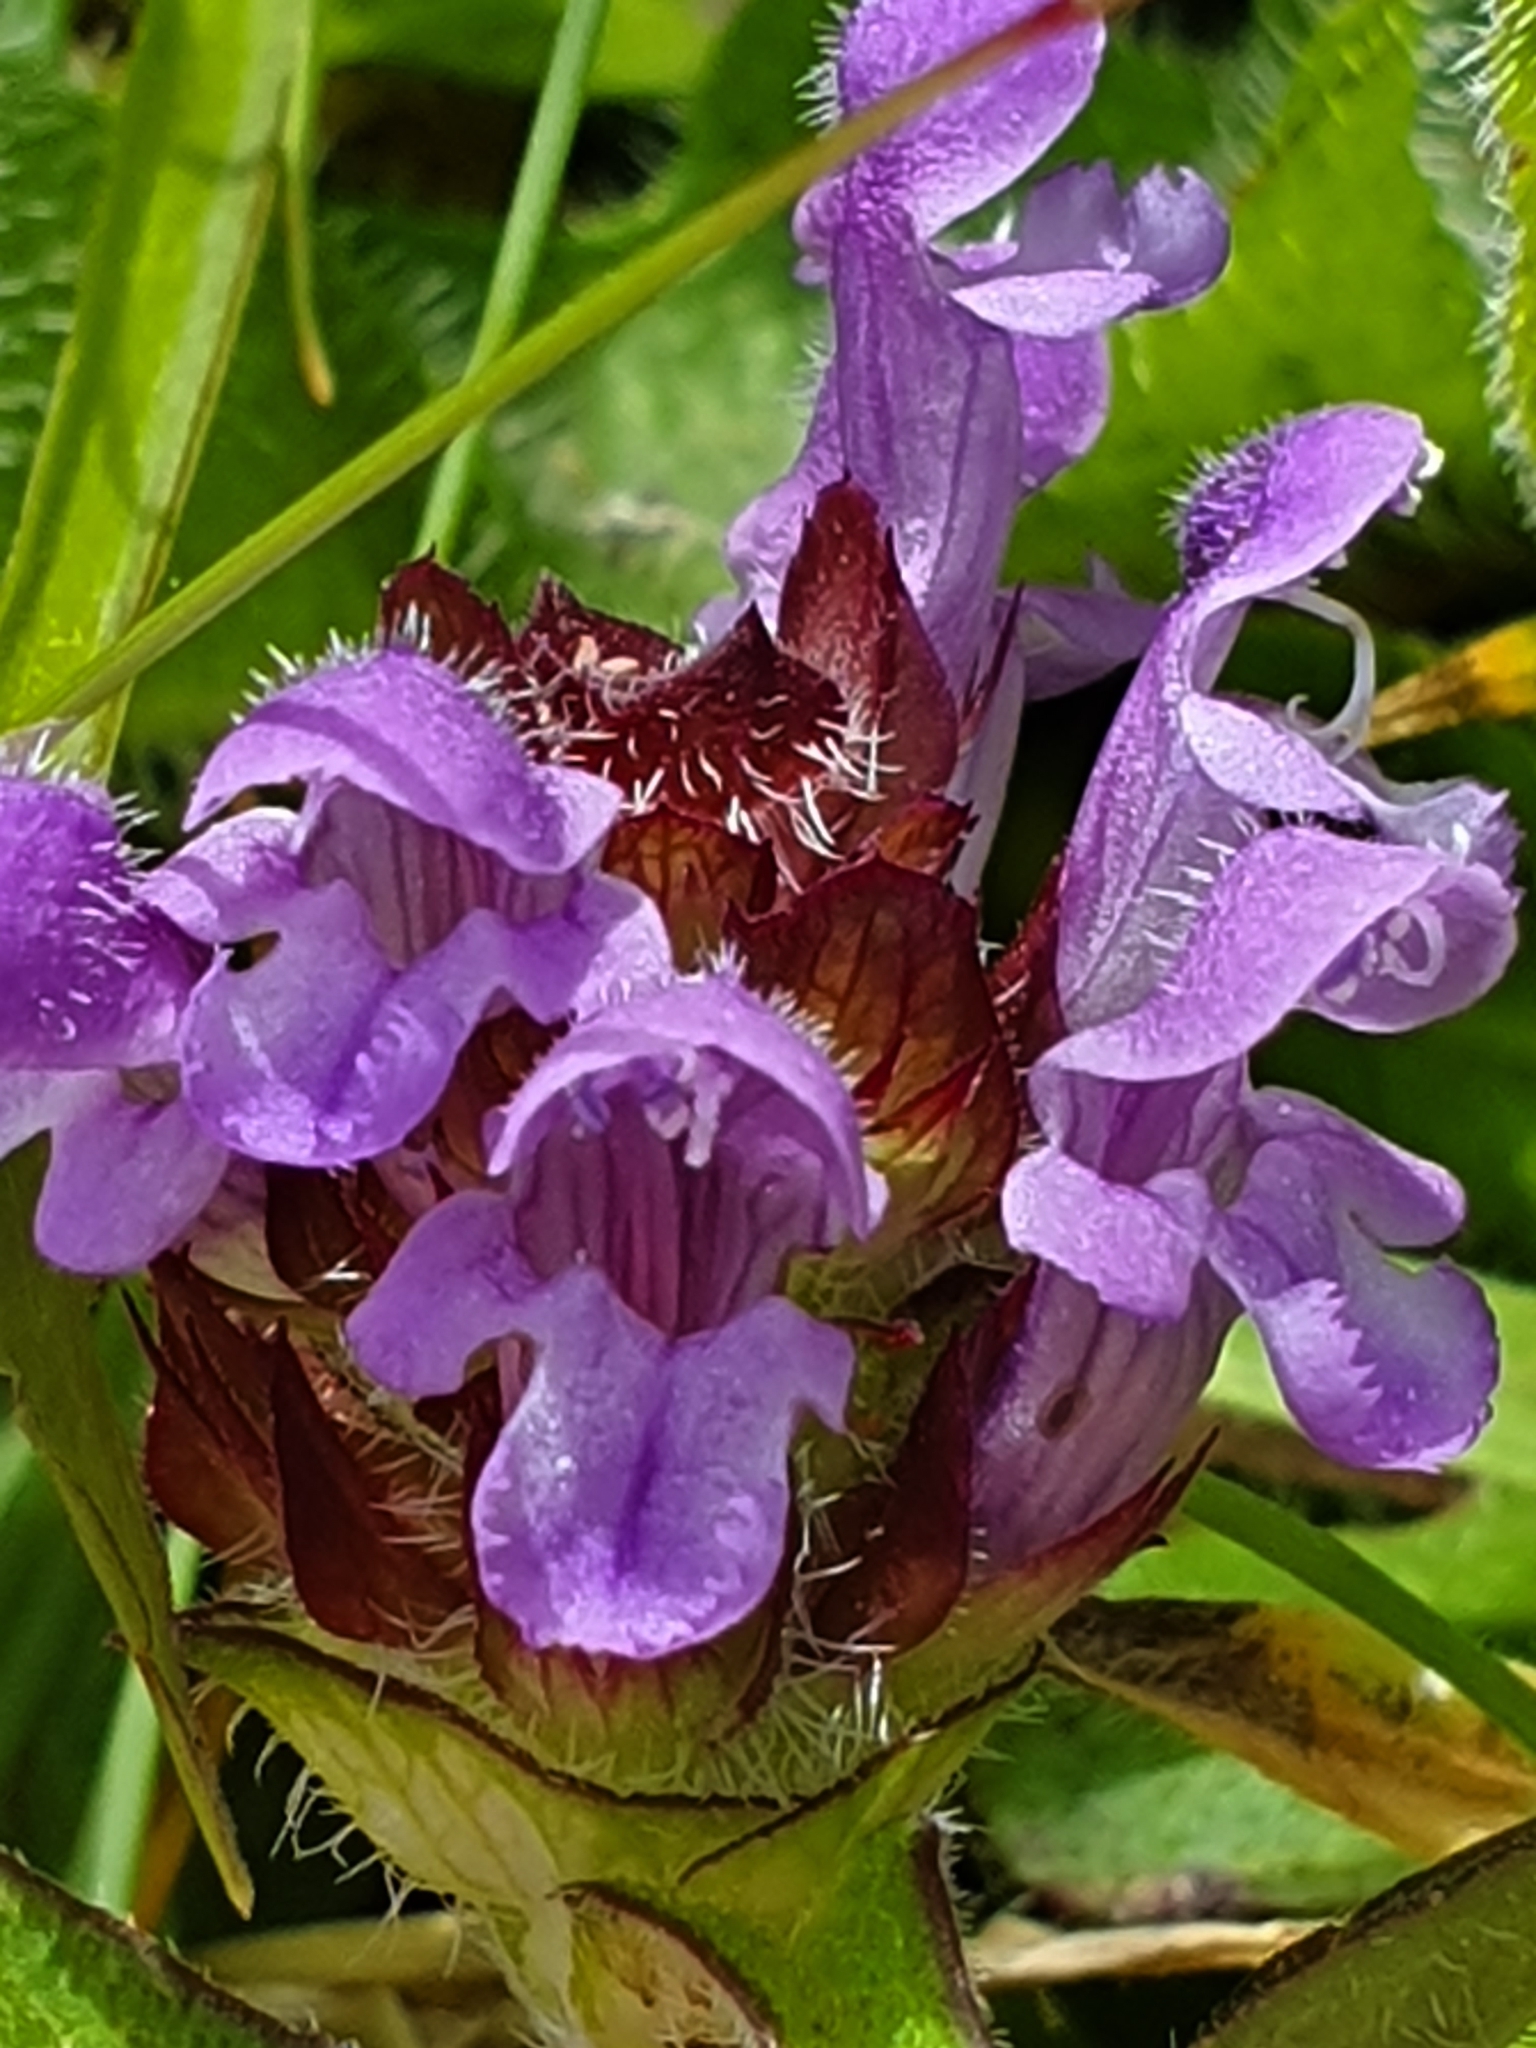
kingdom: Plantae
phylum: Tracheophyta
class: Magnoliopsida
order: Lamiales
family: Lamiaceae
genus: Prunella
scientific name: Prunella vulgaris
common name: Heal-all
